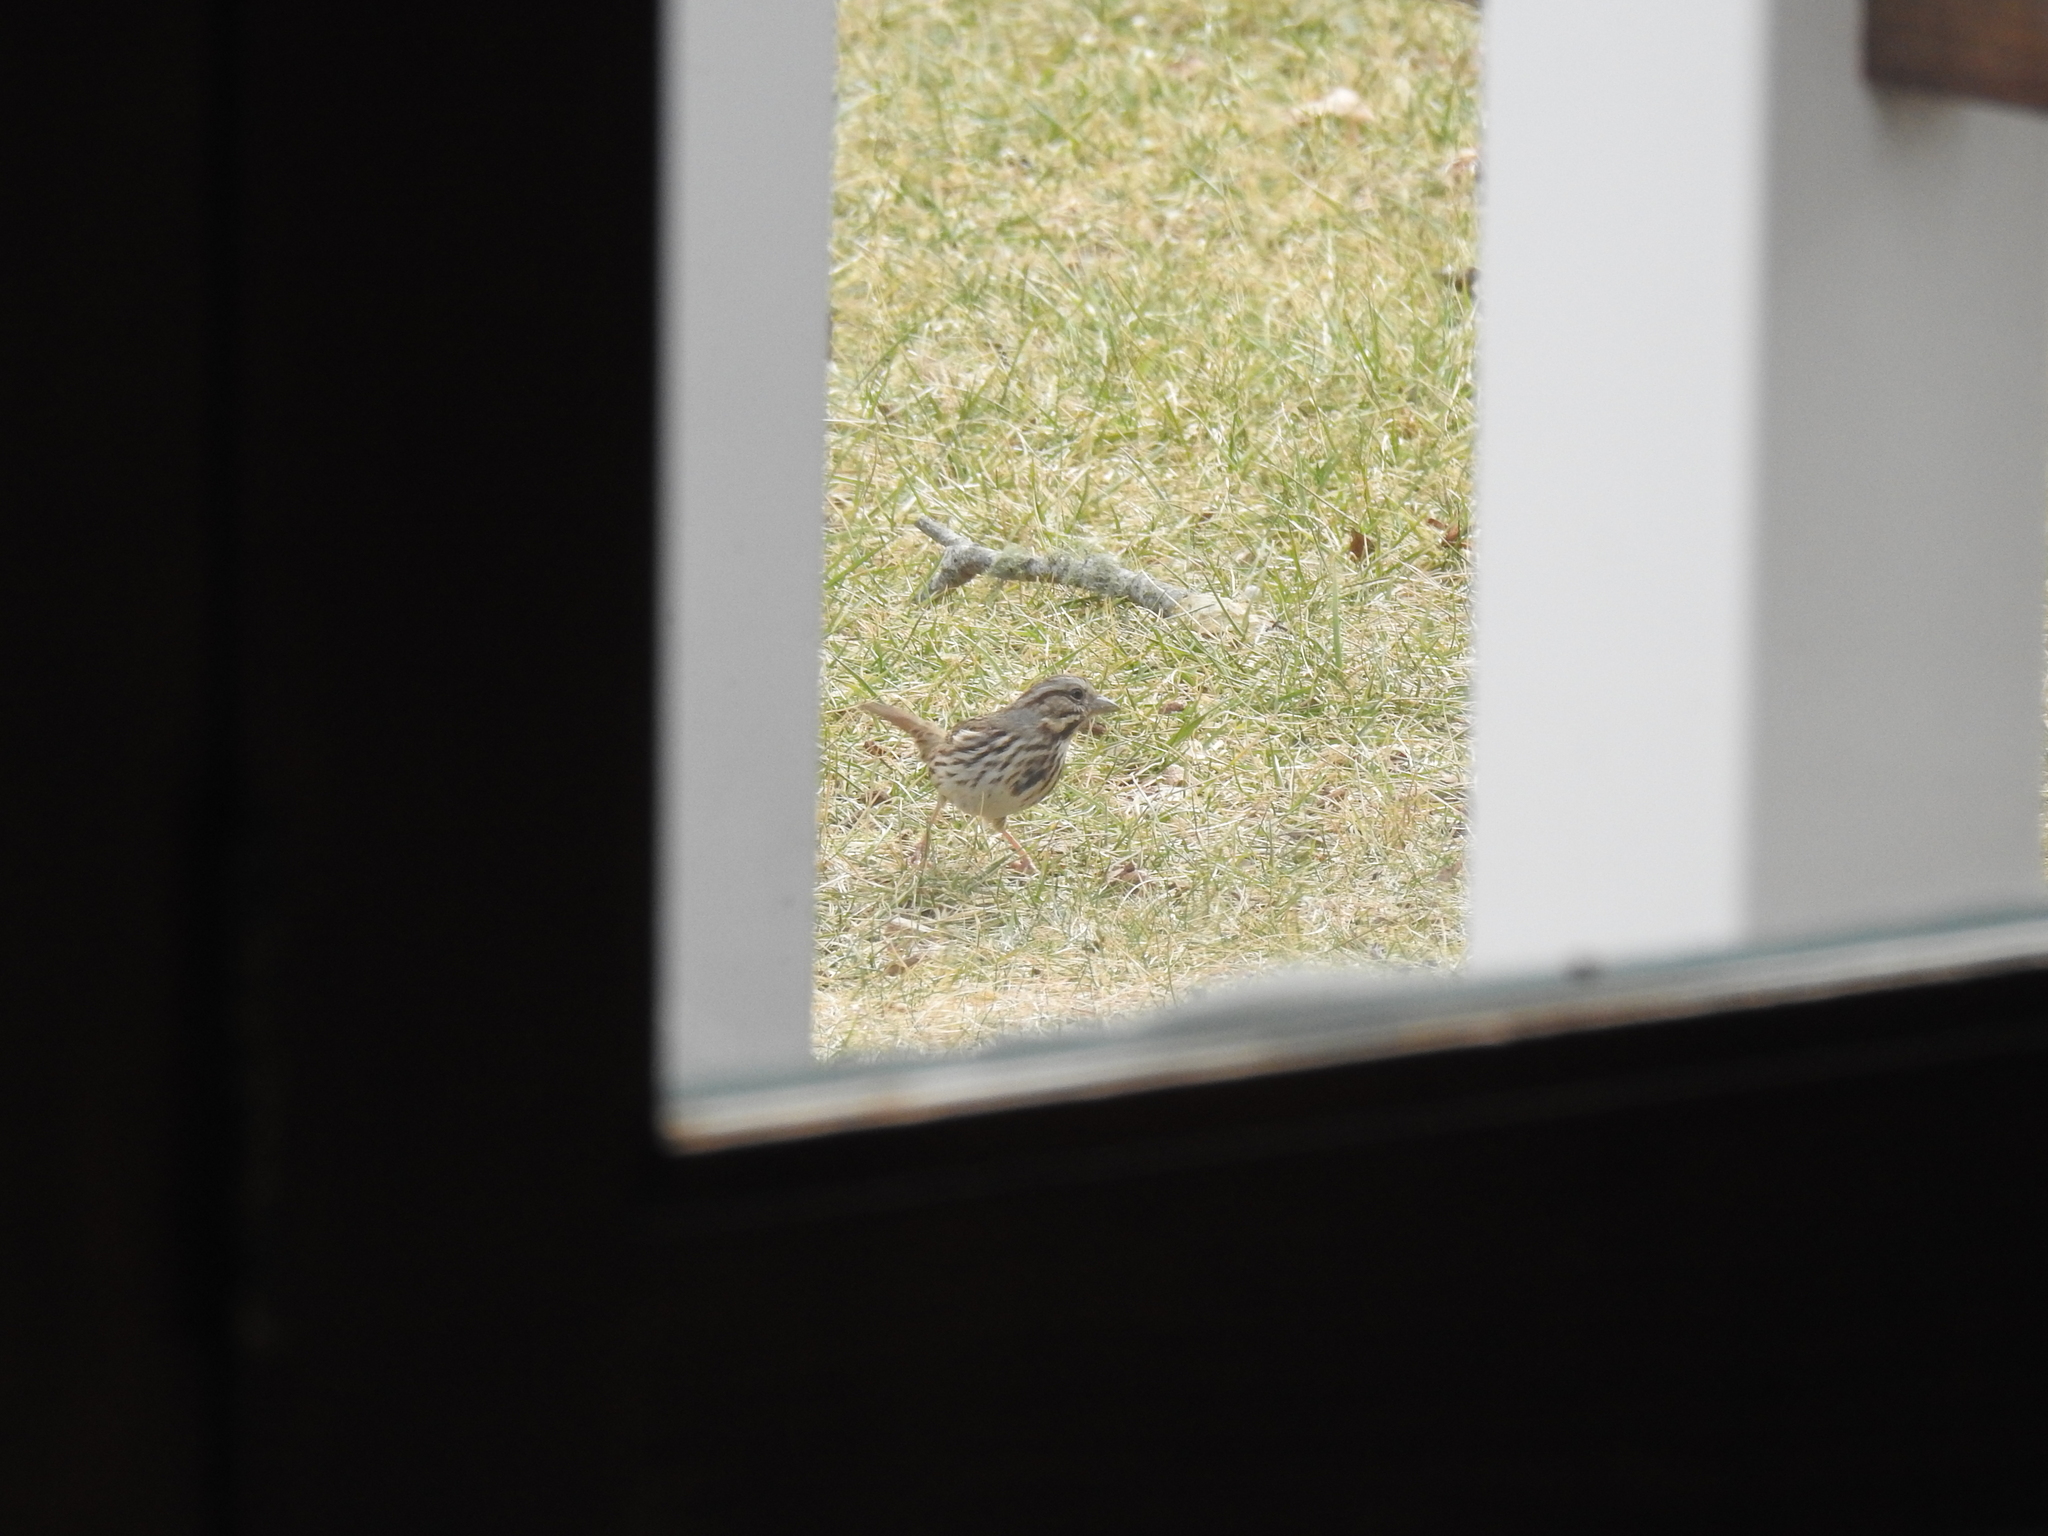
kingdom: Animalia
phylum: Chordata
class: Aves
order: Passeriformes
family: Passerellidae
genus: Melospiza
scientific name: Melospiza melodia
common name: Song sparrow
